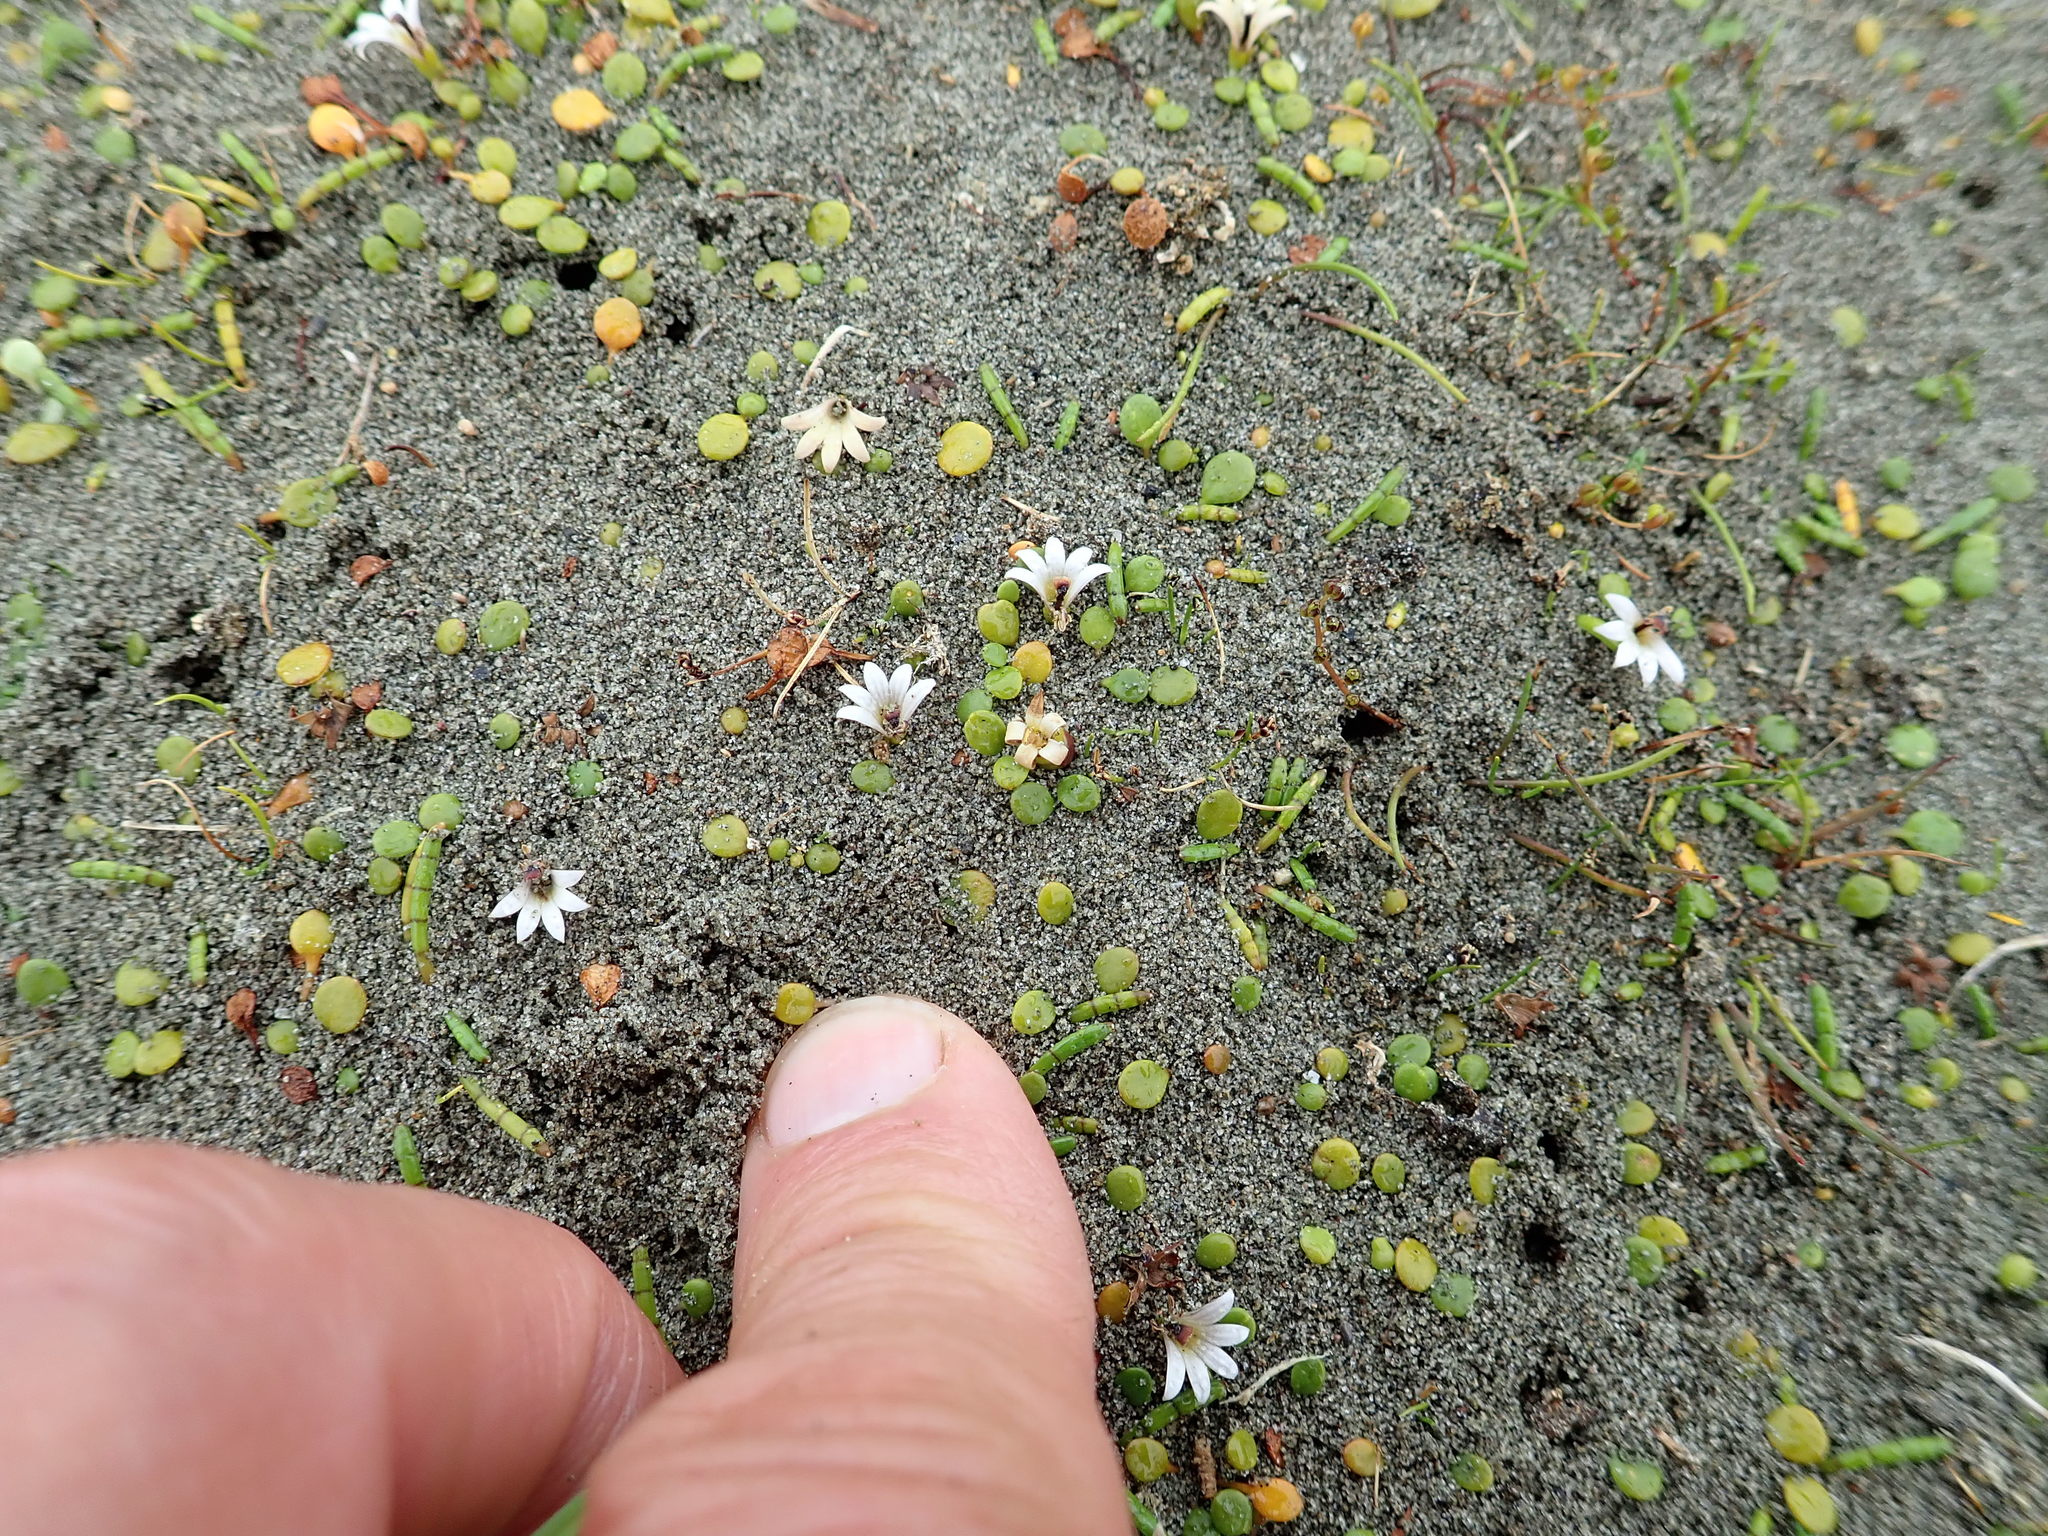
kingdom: Plantae
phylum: Tracheophyta
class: Magnoliopsida
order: Asterales
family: Goodeniaceae
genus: Goodenia
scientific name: Goodenia heenanii
